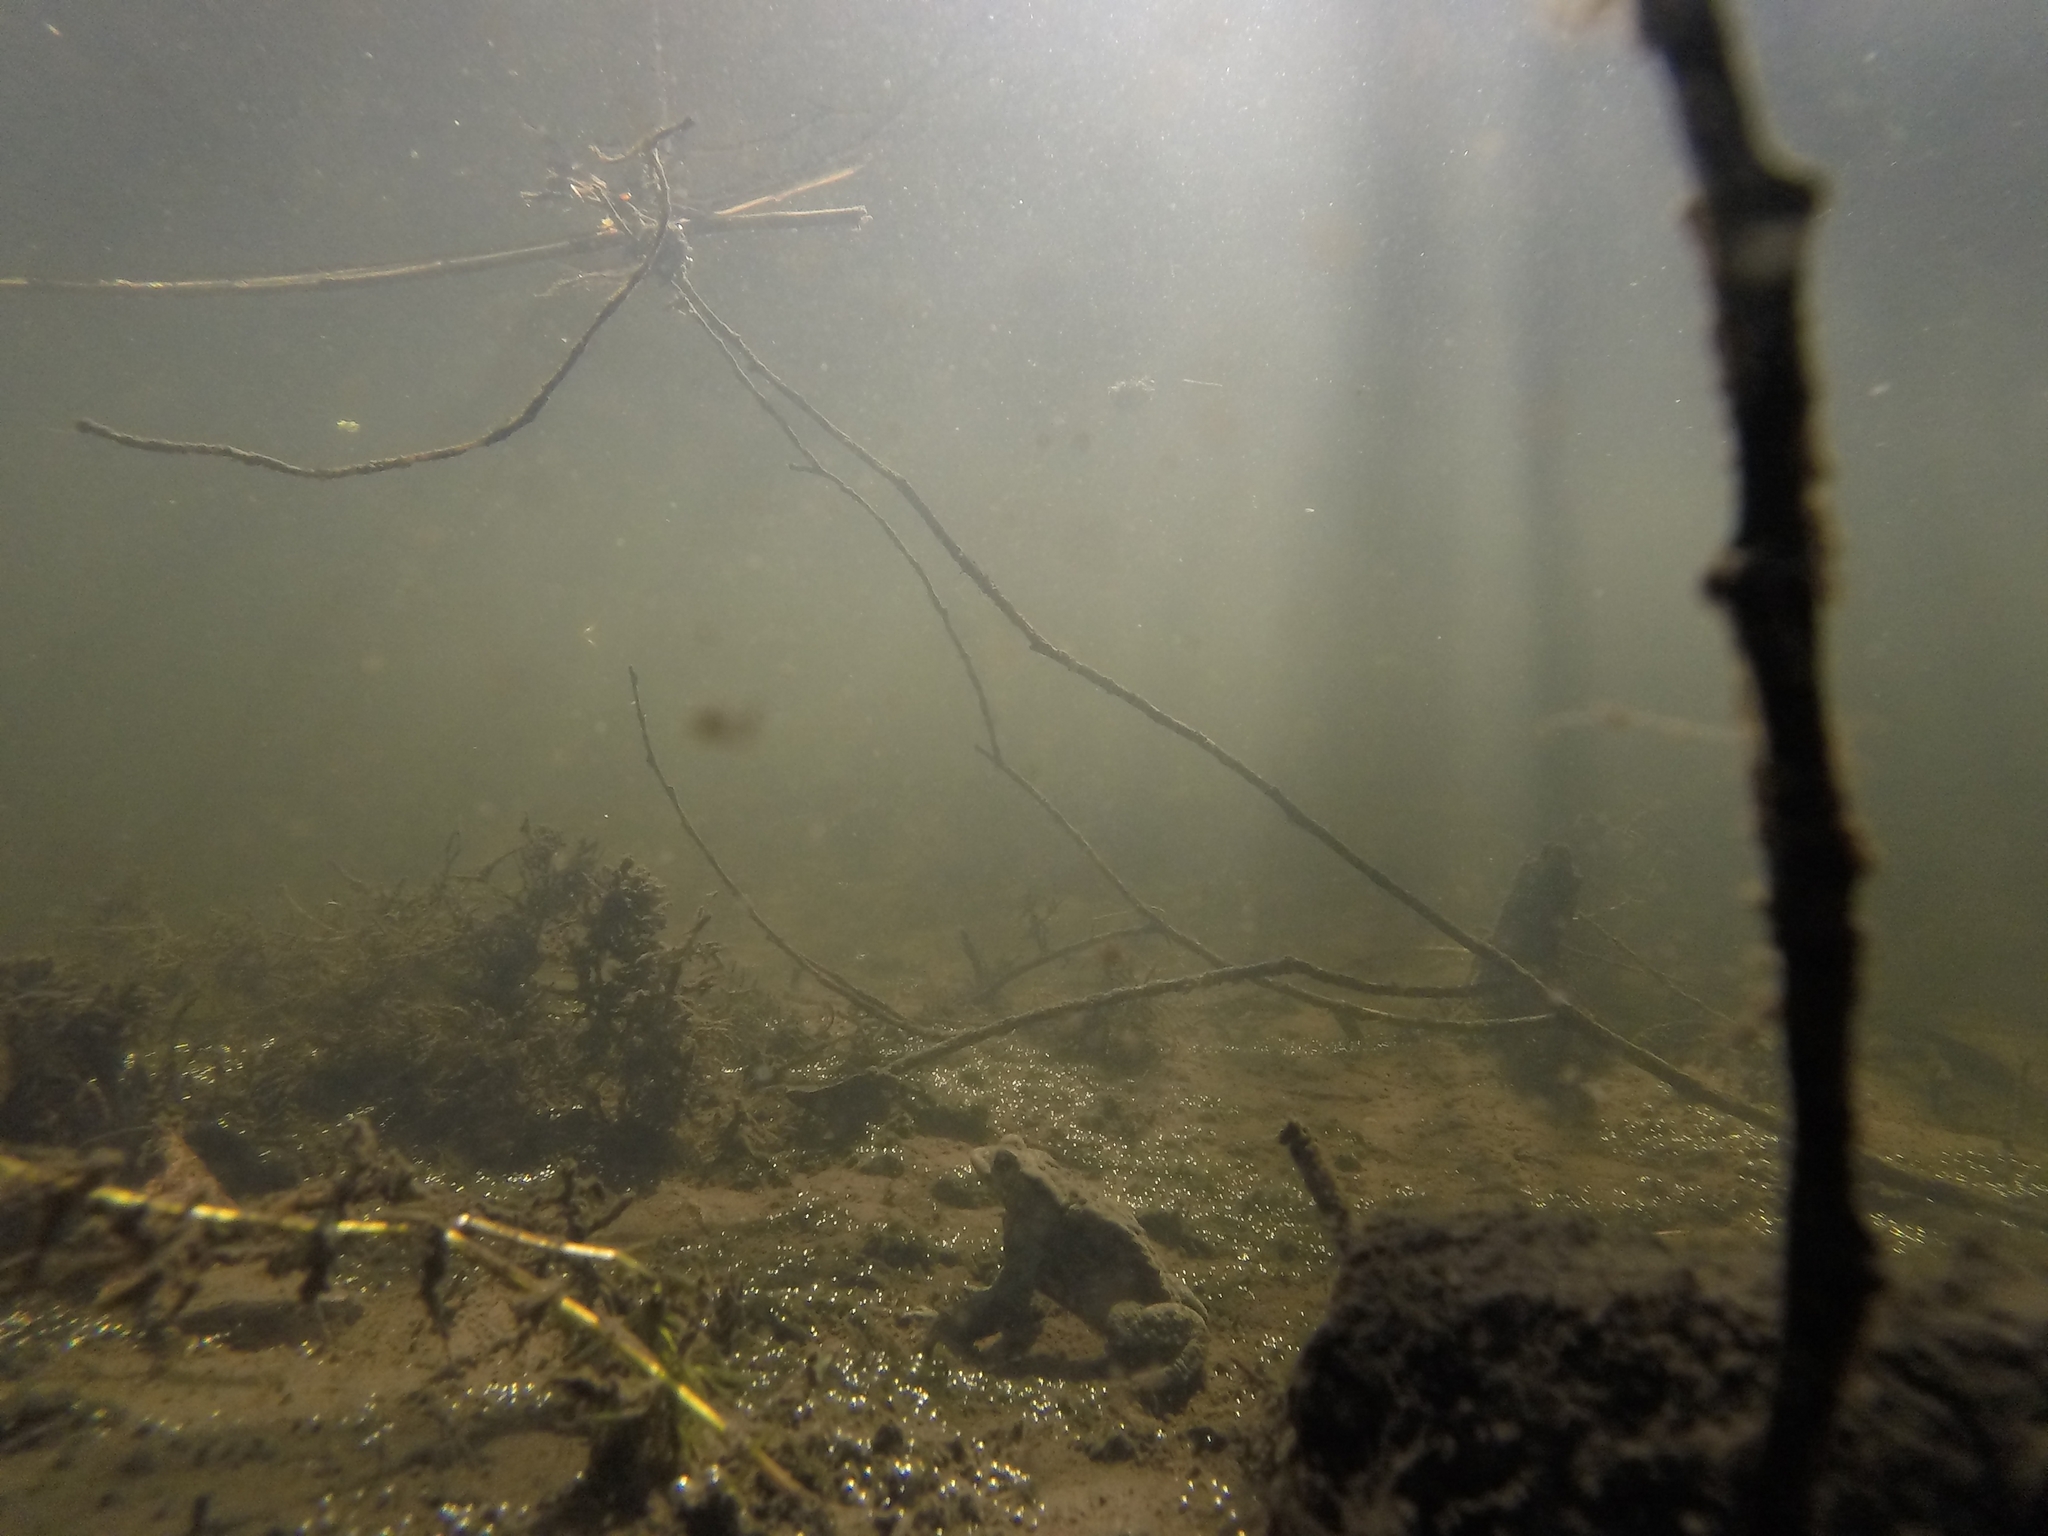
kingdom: Animalia
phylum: Chordata
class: Amphibia
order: Anura
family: Bufonidae
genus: Bufo
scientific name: Bufo bufo
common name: Common toad
